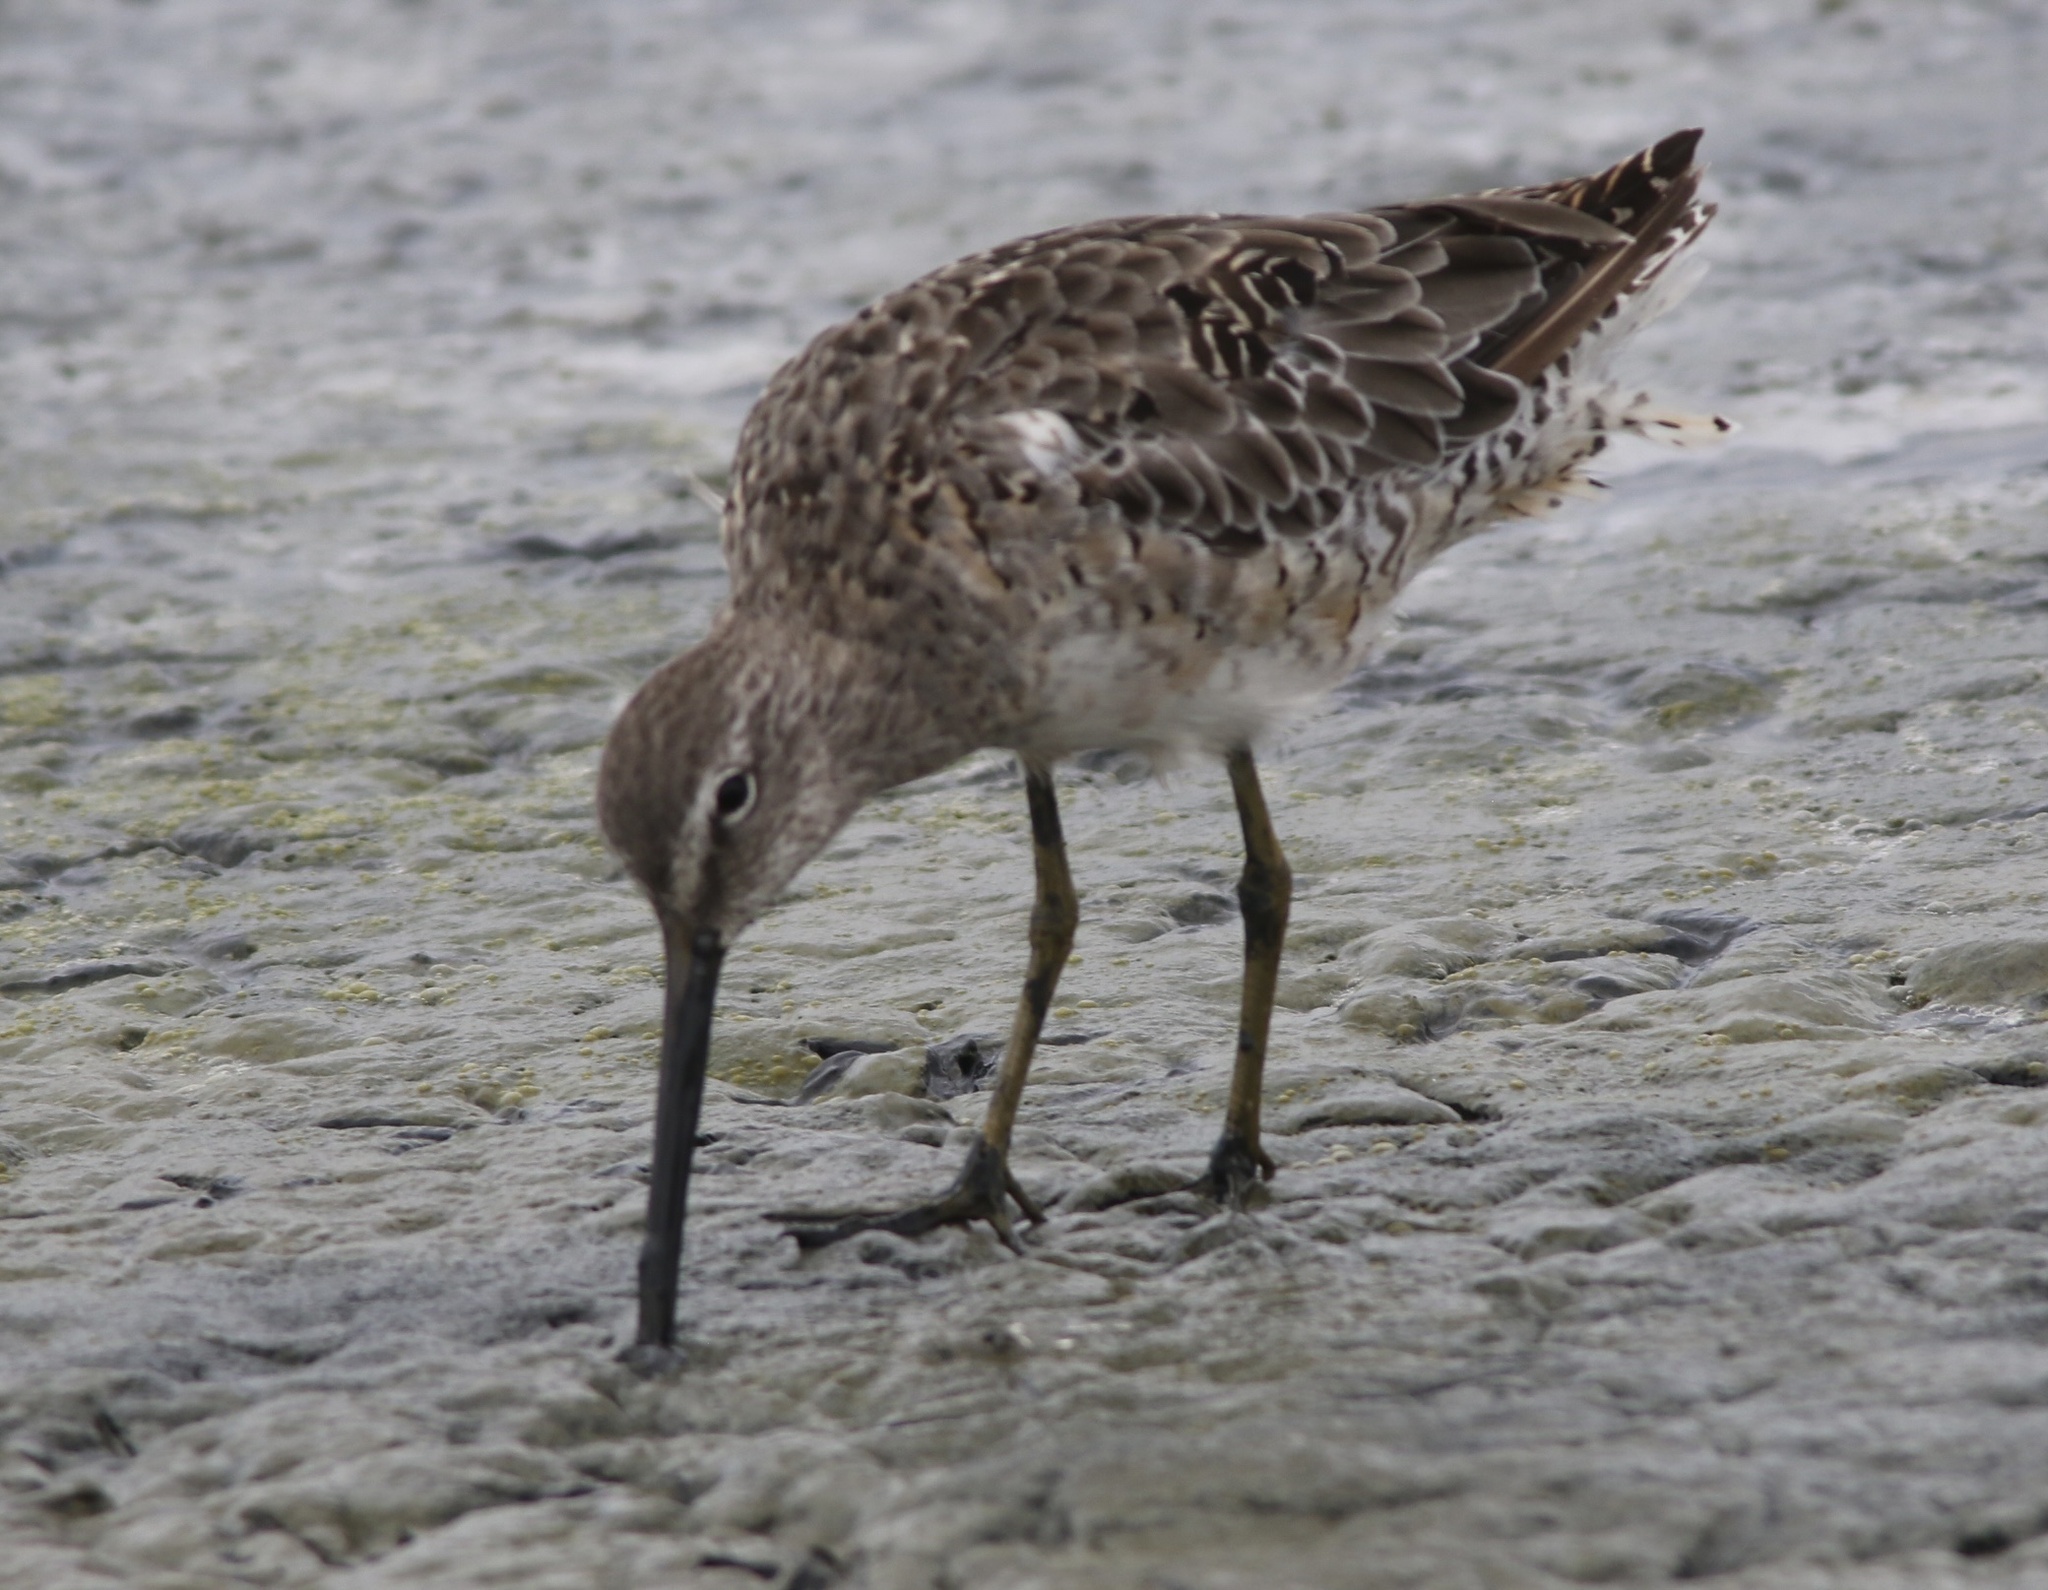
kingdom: Animalia
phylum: Chordata
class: Aves
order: Charadriiformes
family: Scolopacidae
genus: Limnodromus
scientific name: Limnodromus scolopaceus
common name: Long-billed dowitcher
